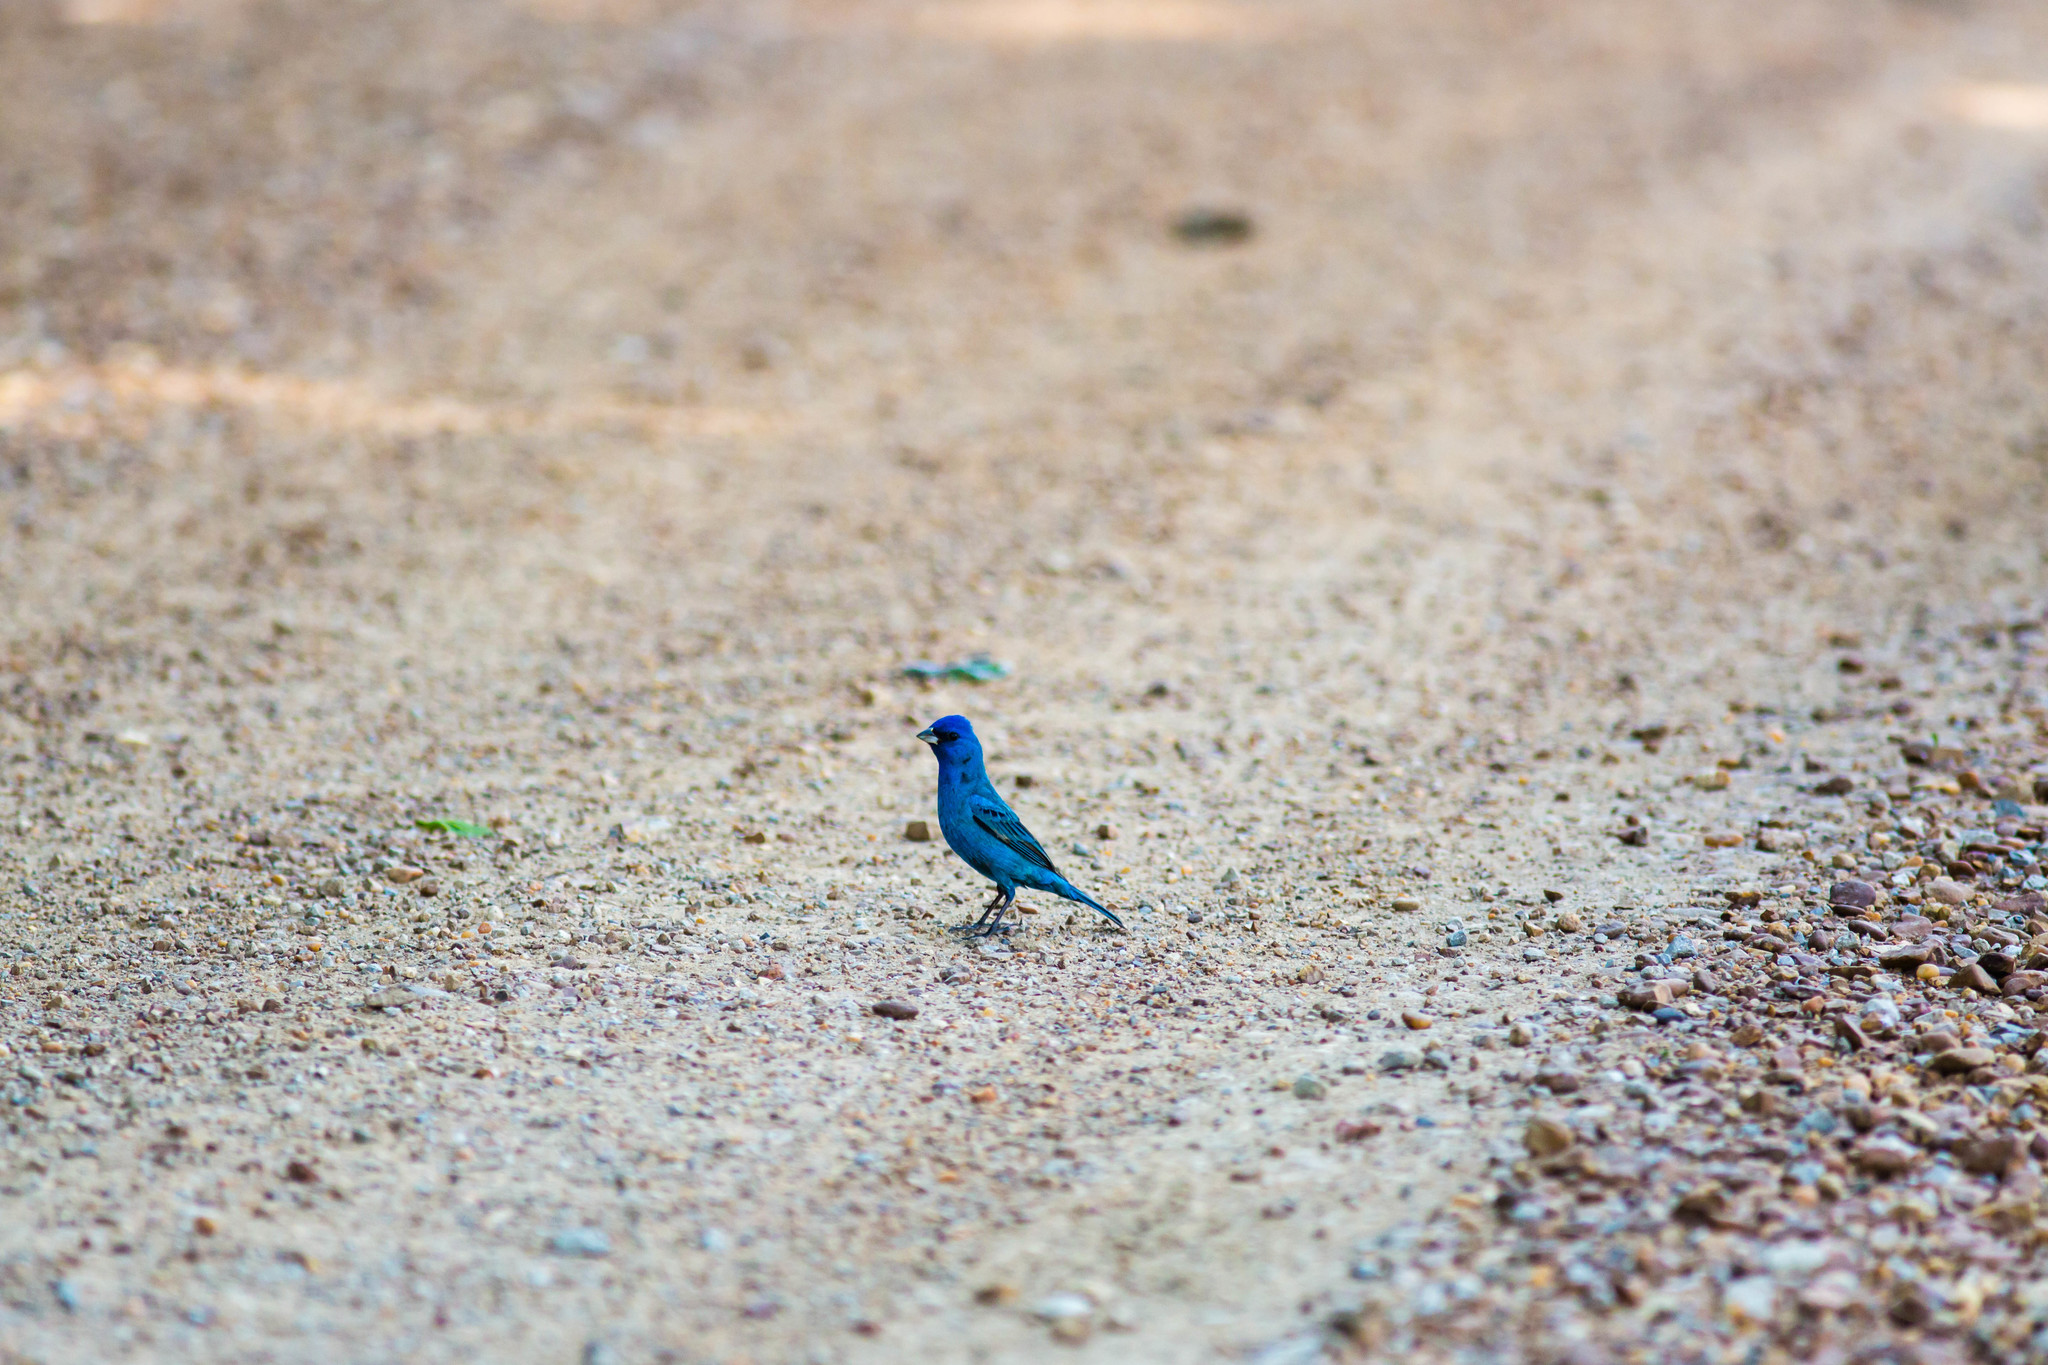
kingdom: Animalia
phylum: Chordata
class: Aves
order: Passeriformes
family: Cardinalidae
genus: Passerina
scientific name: Passerina cyanea
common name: Indigo bunting
